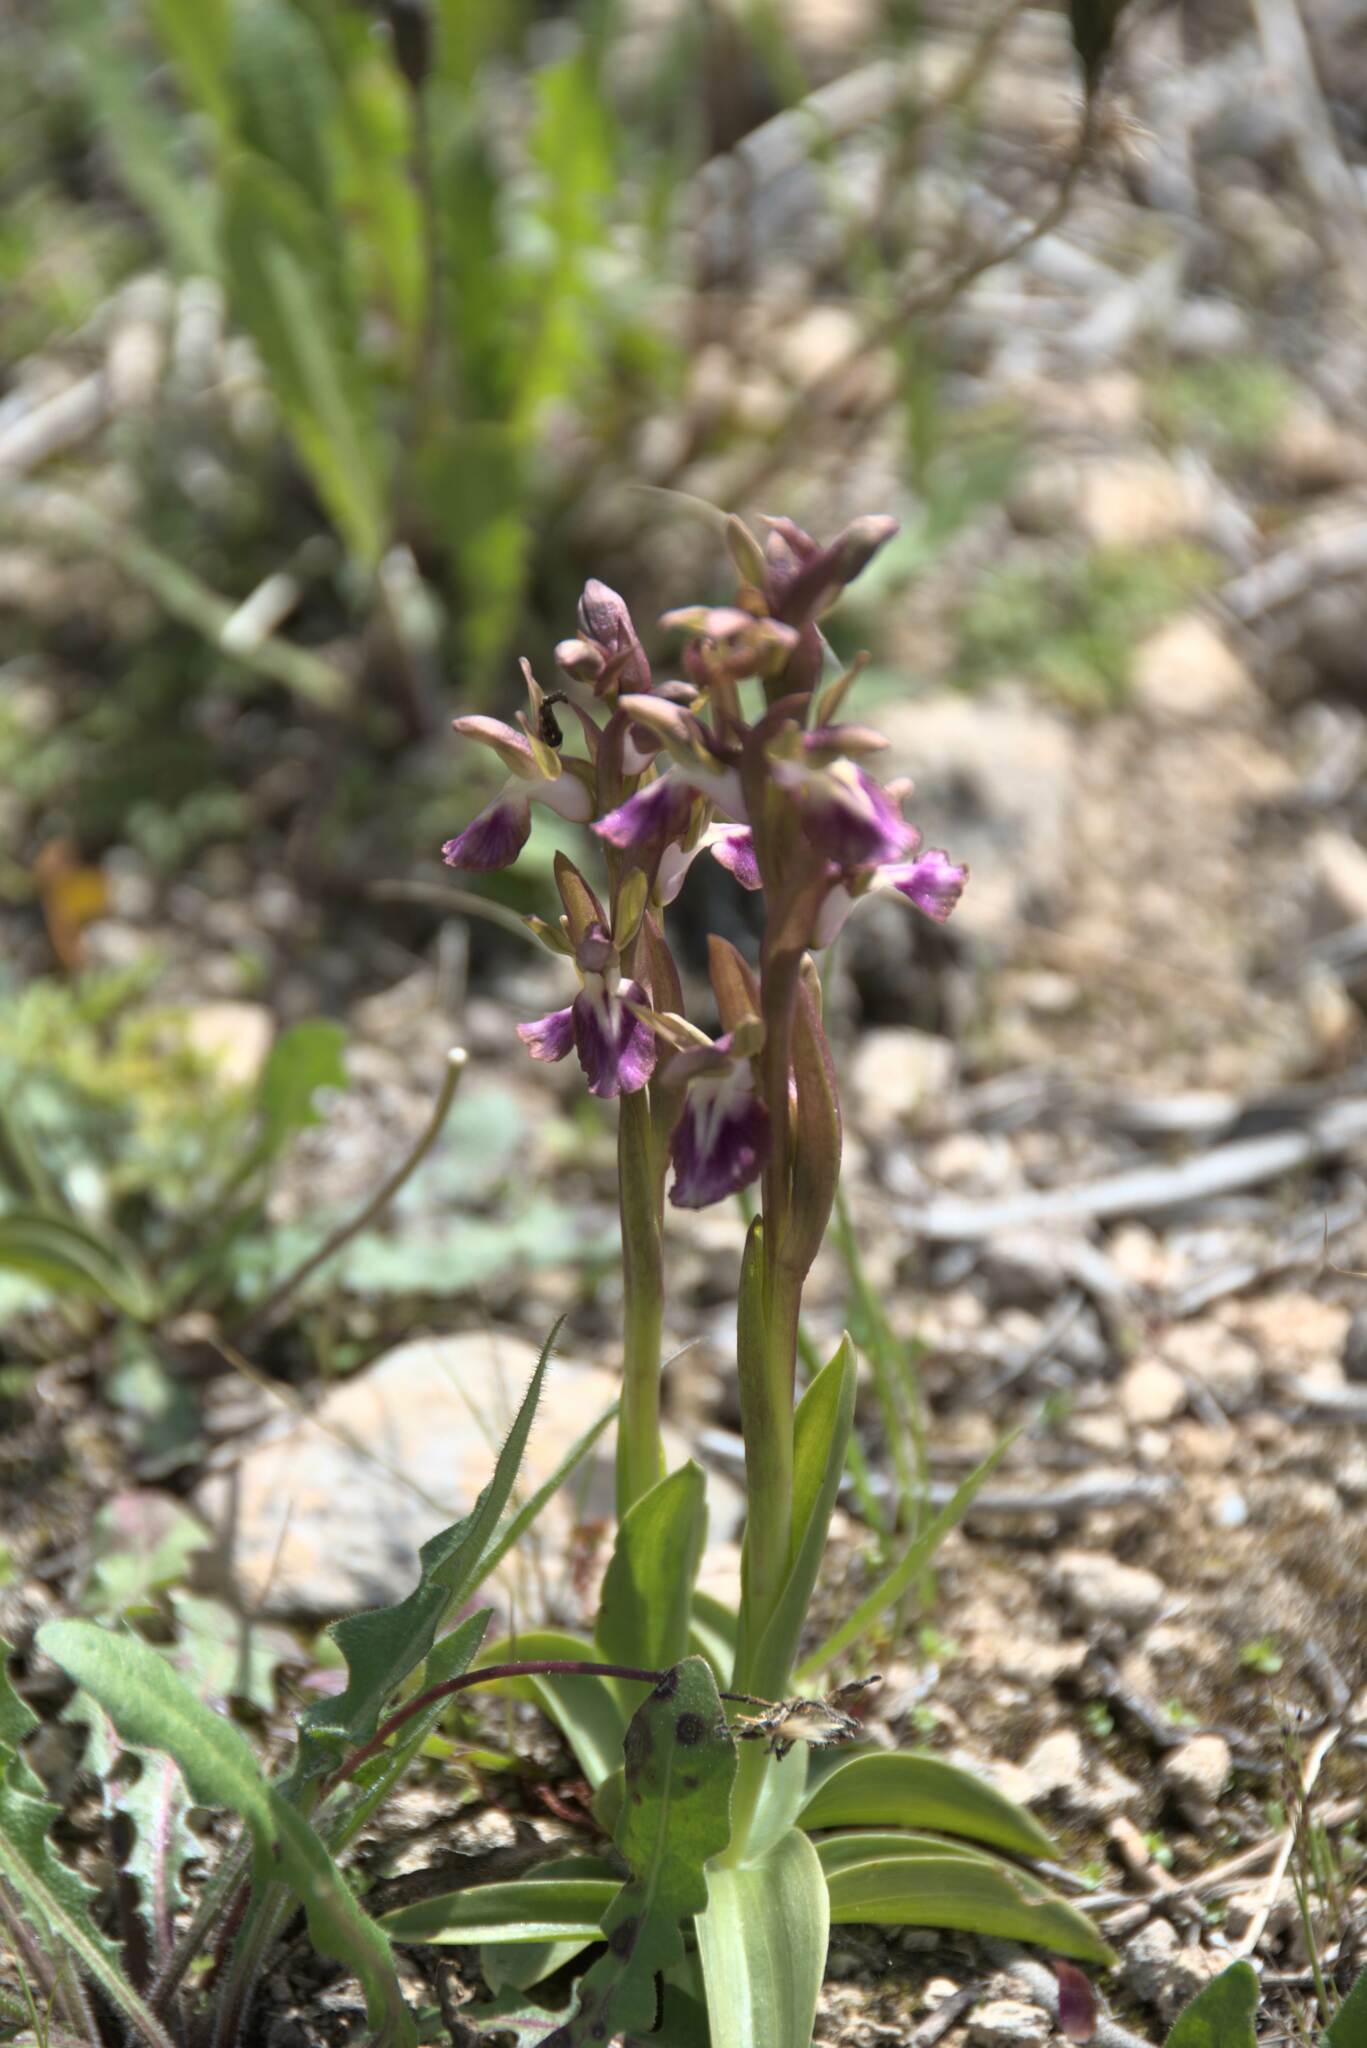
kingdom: Plantae
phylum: Tracheophyta
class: Liliopsida
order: Asparagales
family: Orchidaceae
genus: Anacamptis
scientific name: Anacamptis collina
